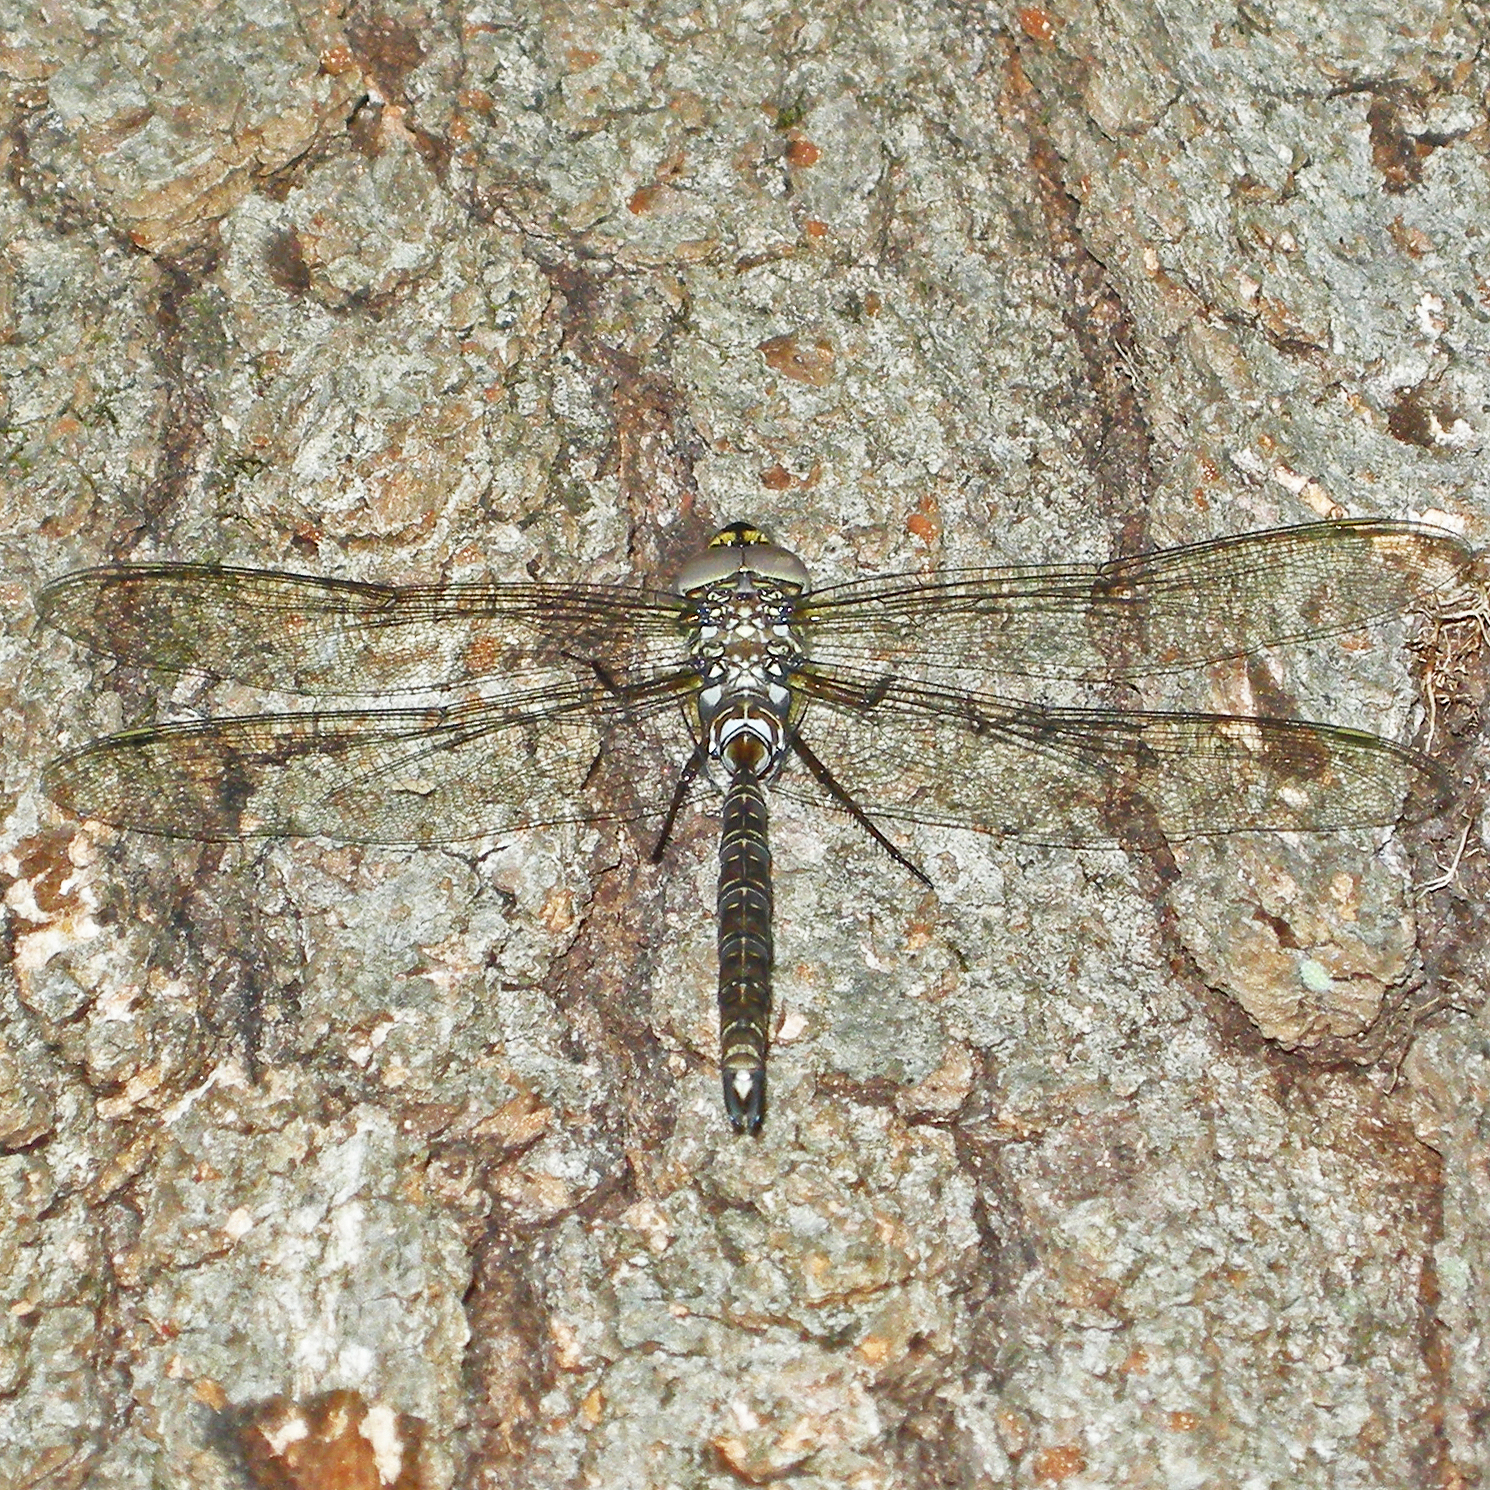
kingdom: Animalia
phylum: Arthropoda
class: Insecta
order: Odonata
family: Aeshnidae
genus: Aeshna
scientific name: Aeshna umbrosa
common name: Shadow darner
